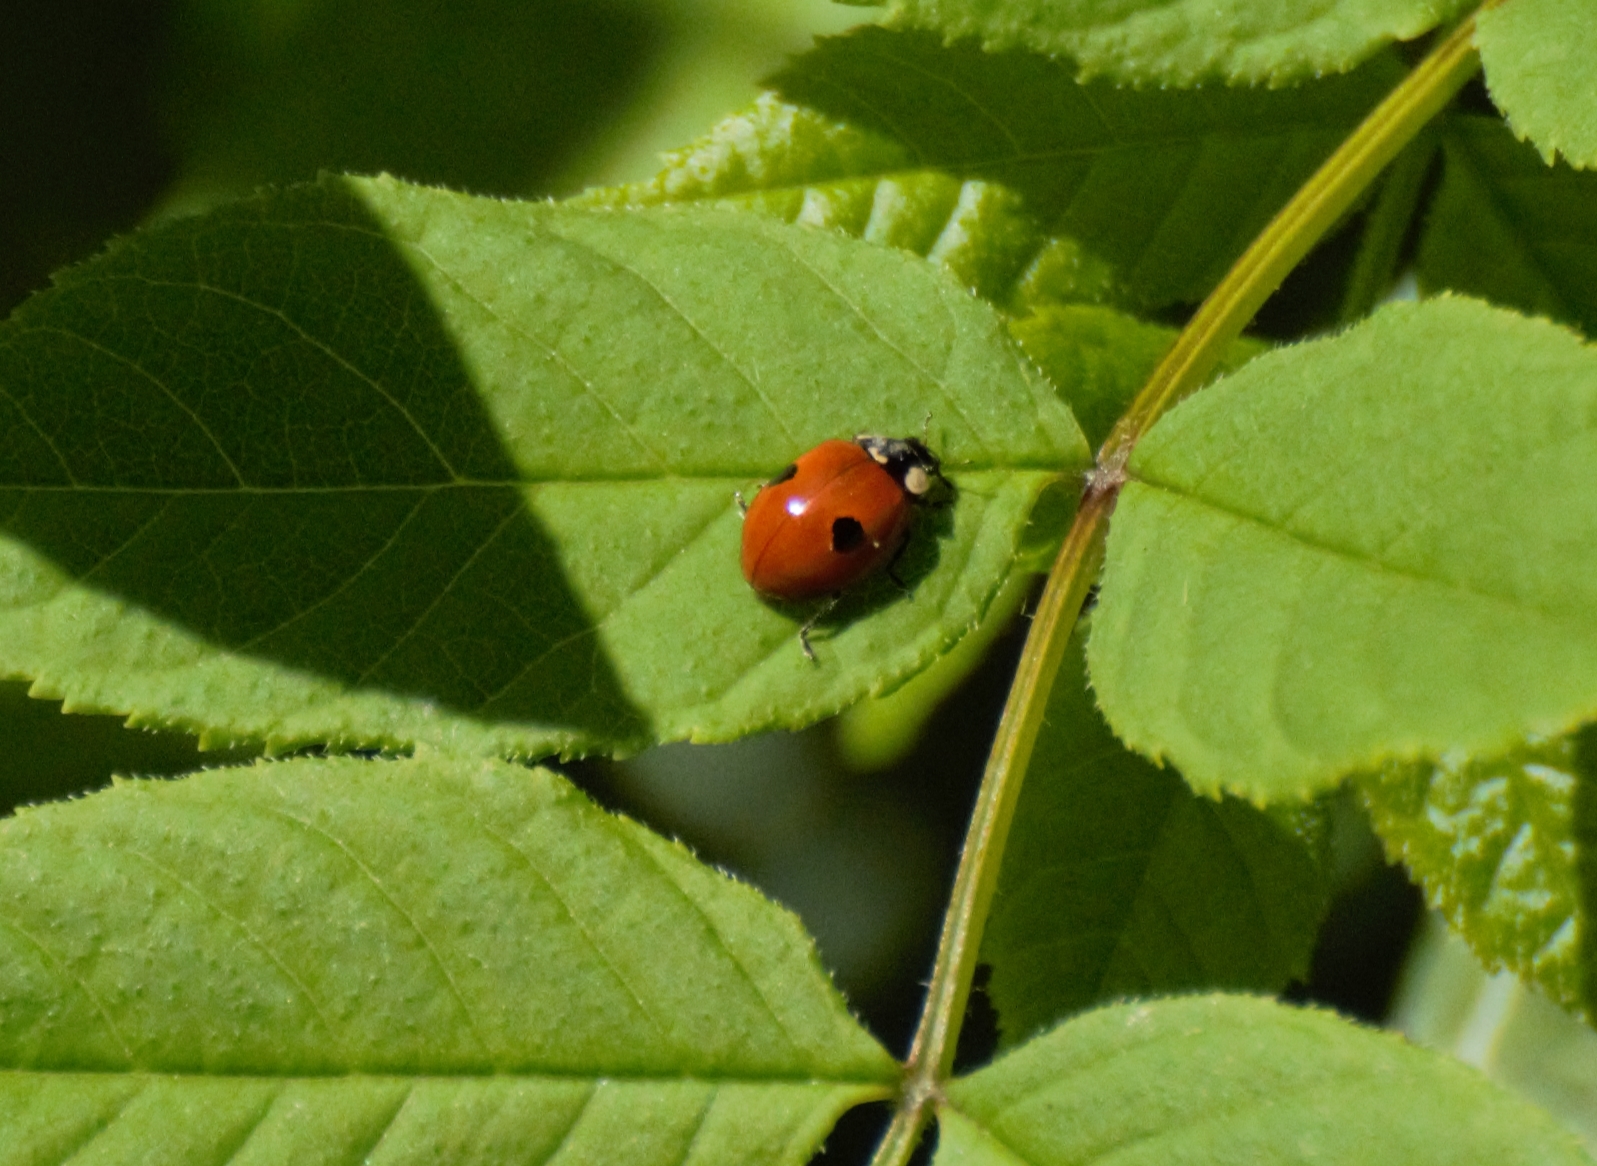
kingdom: Animalia
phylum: Arthropoda
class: Insecta
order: Coleoptera
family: Coccinellidae
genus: Adalia
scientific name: Adalia bipunctata
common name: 2-spot ladybird
